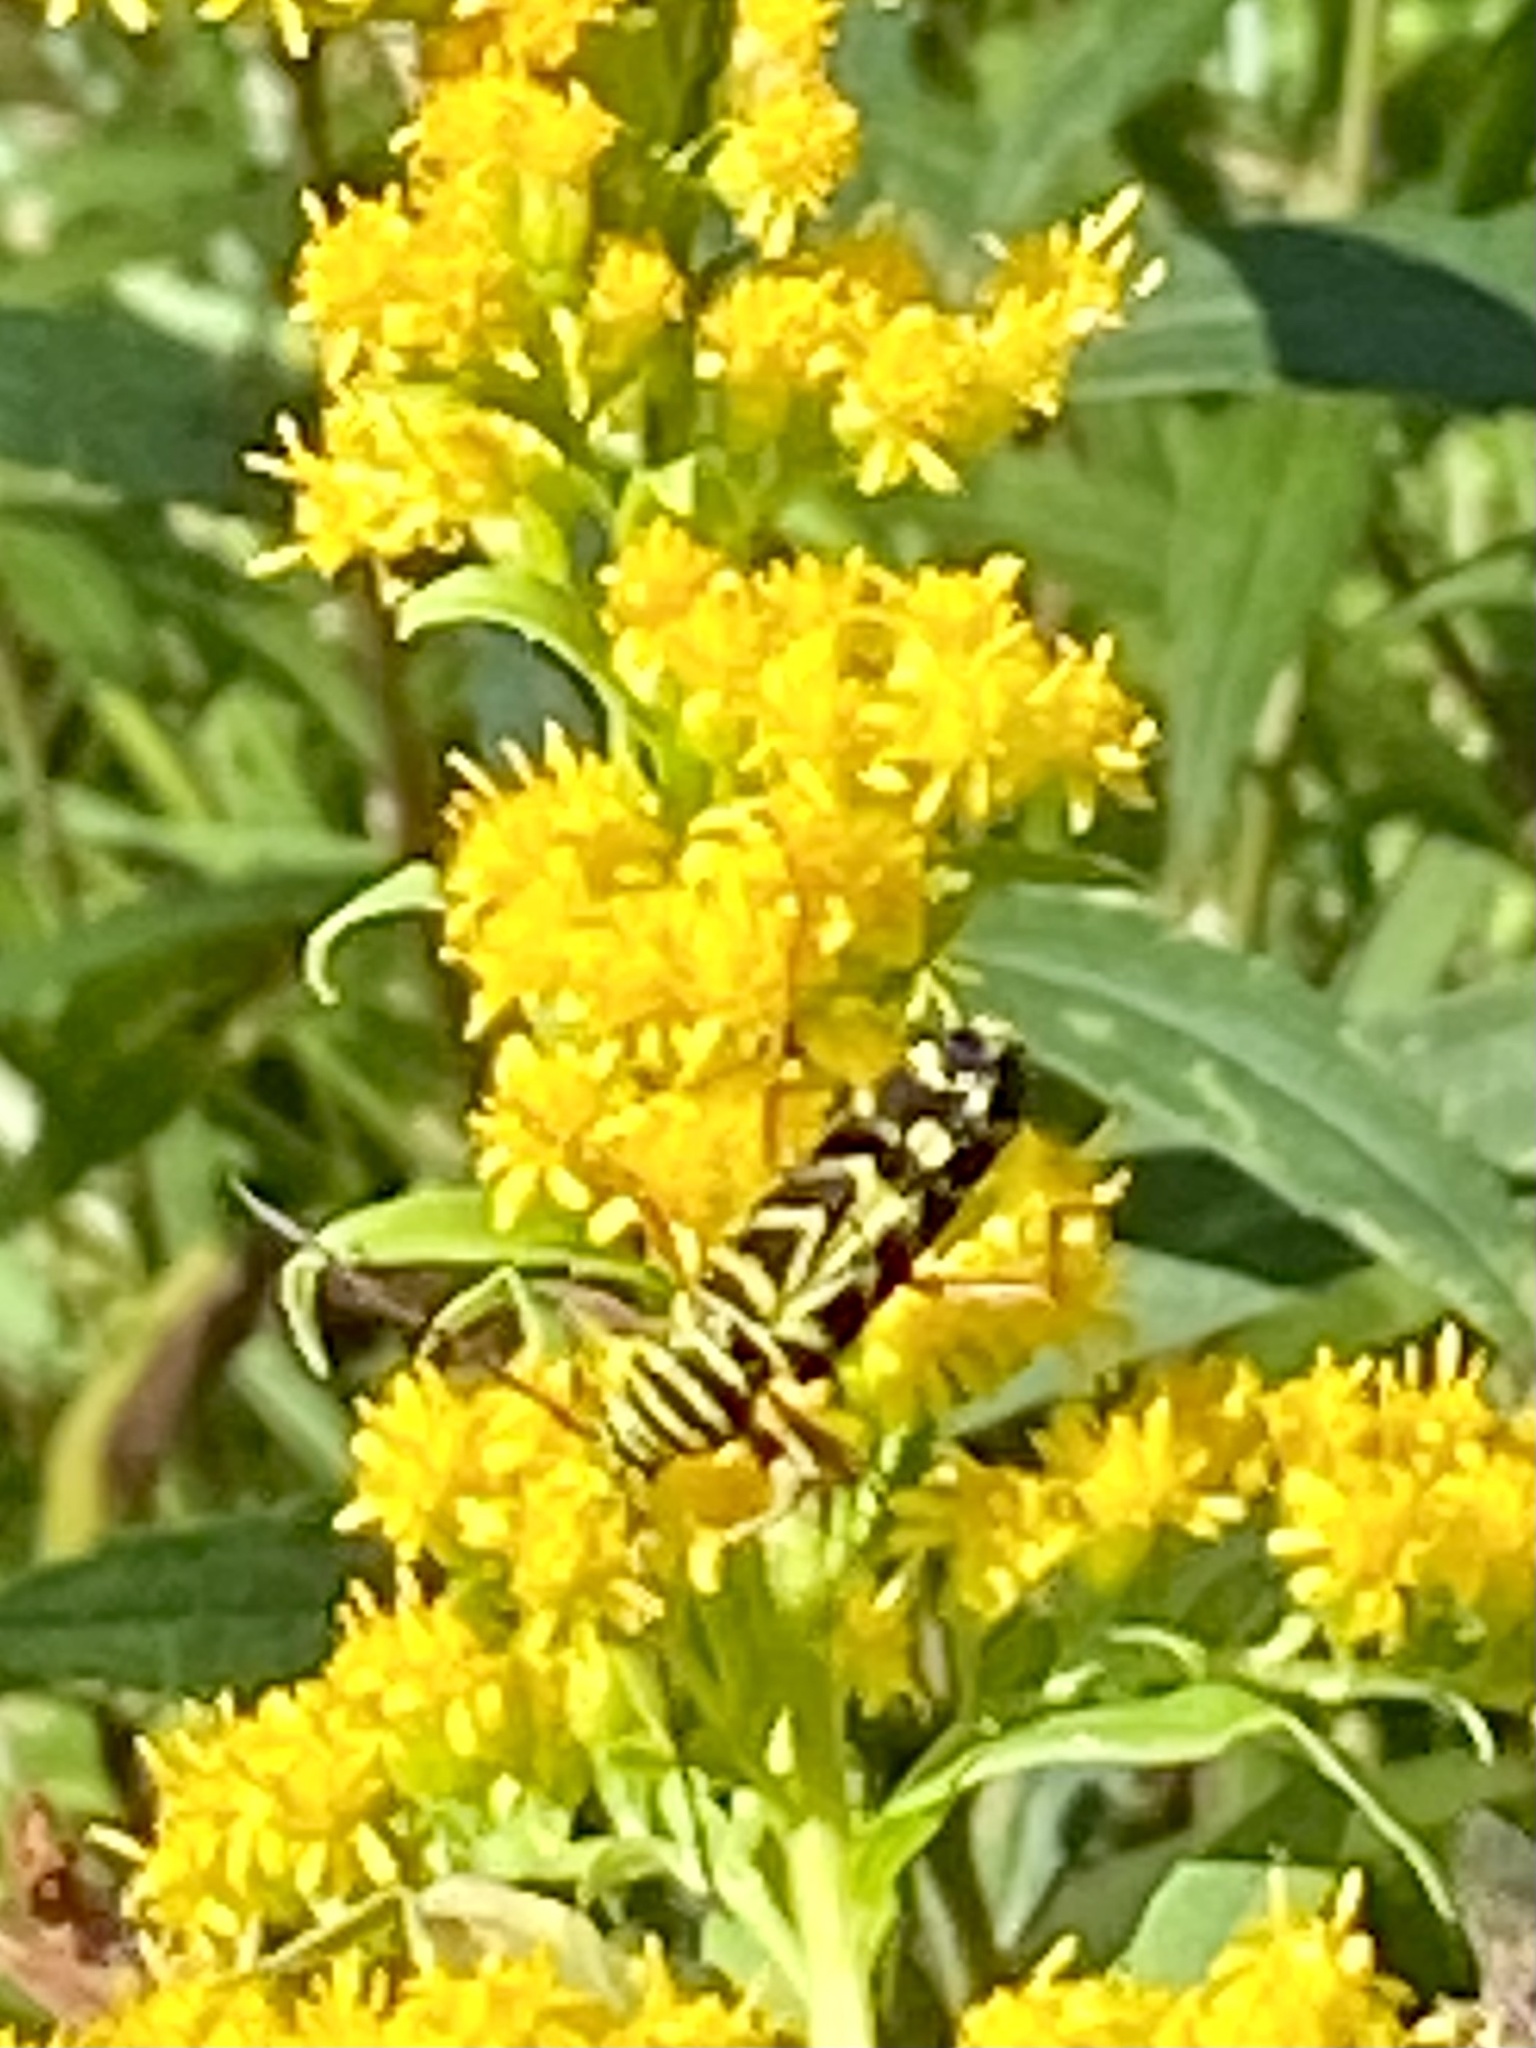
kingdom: Animalia
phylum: Arthropoda
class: Insecta
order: Coleoptera
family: Cerambycidae
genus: Megacyllene
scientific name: Megacyllene robiniae
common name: Locust borer
